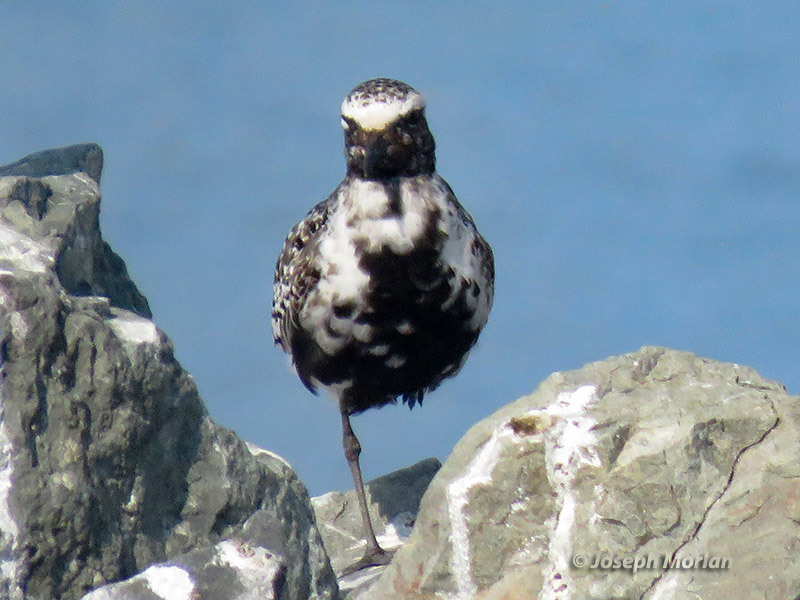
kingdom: Animalia
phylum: Chordata
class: Aves
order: Charadriiformes
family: Charadriidae
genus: Pluvialis
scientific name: Pluvialis squatarola
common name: Grey plover
